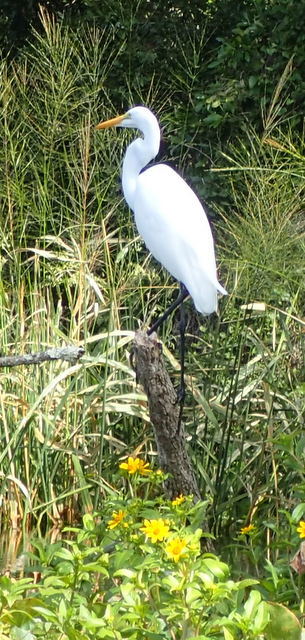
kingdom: Animalia
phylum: Chordata
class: Aves
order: Pelecaniformes
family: Ardeidae
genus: Ardea
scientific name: Ardea alba
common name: Great egret
